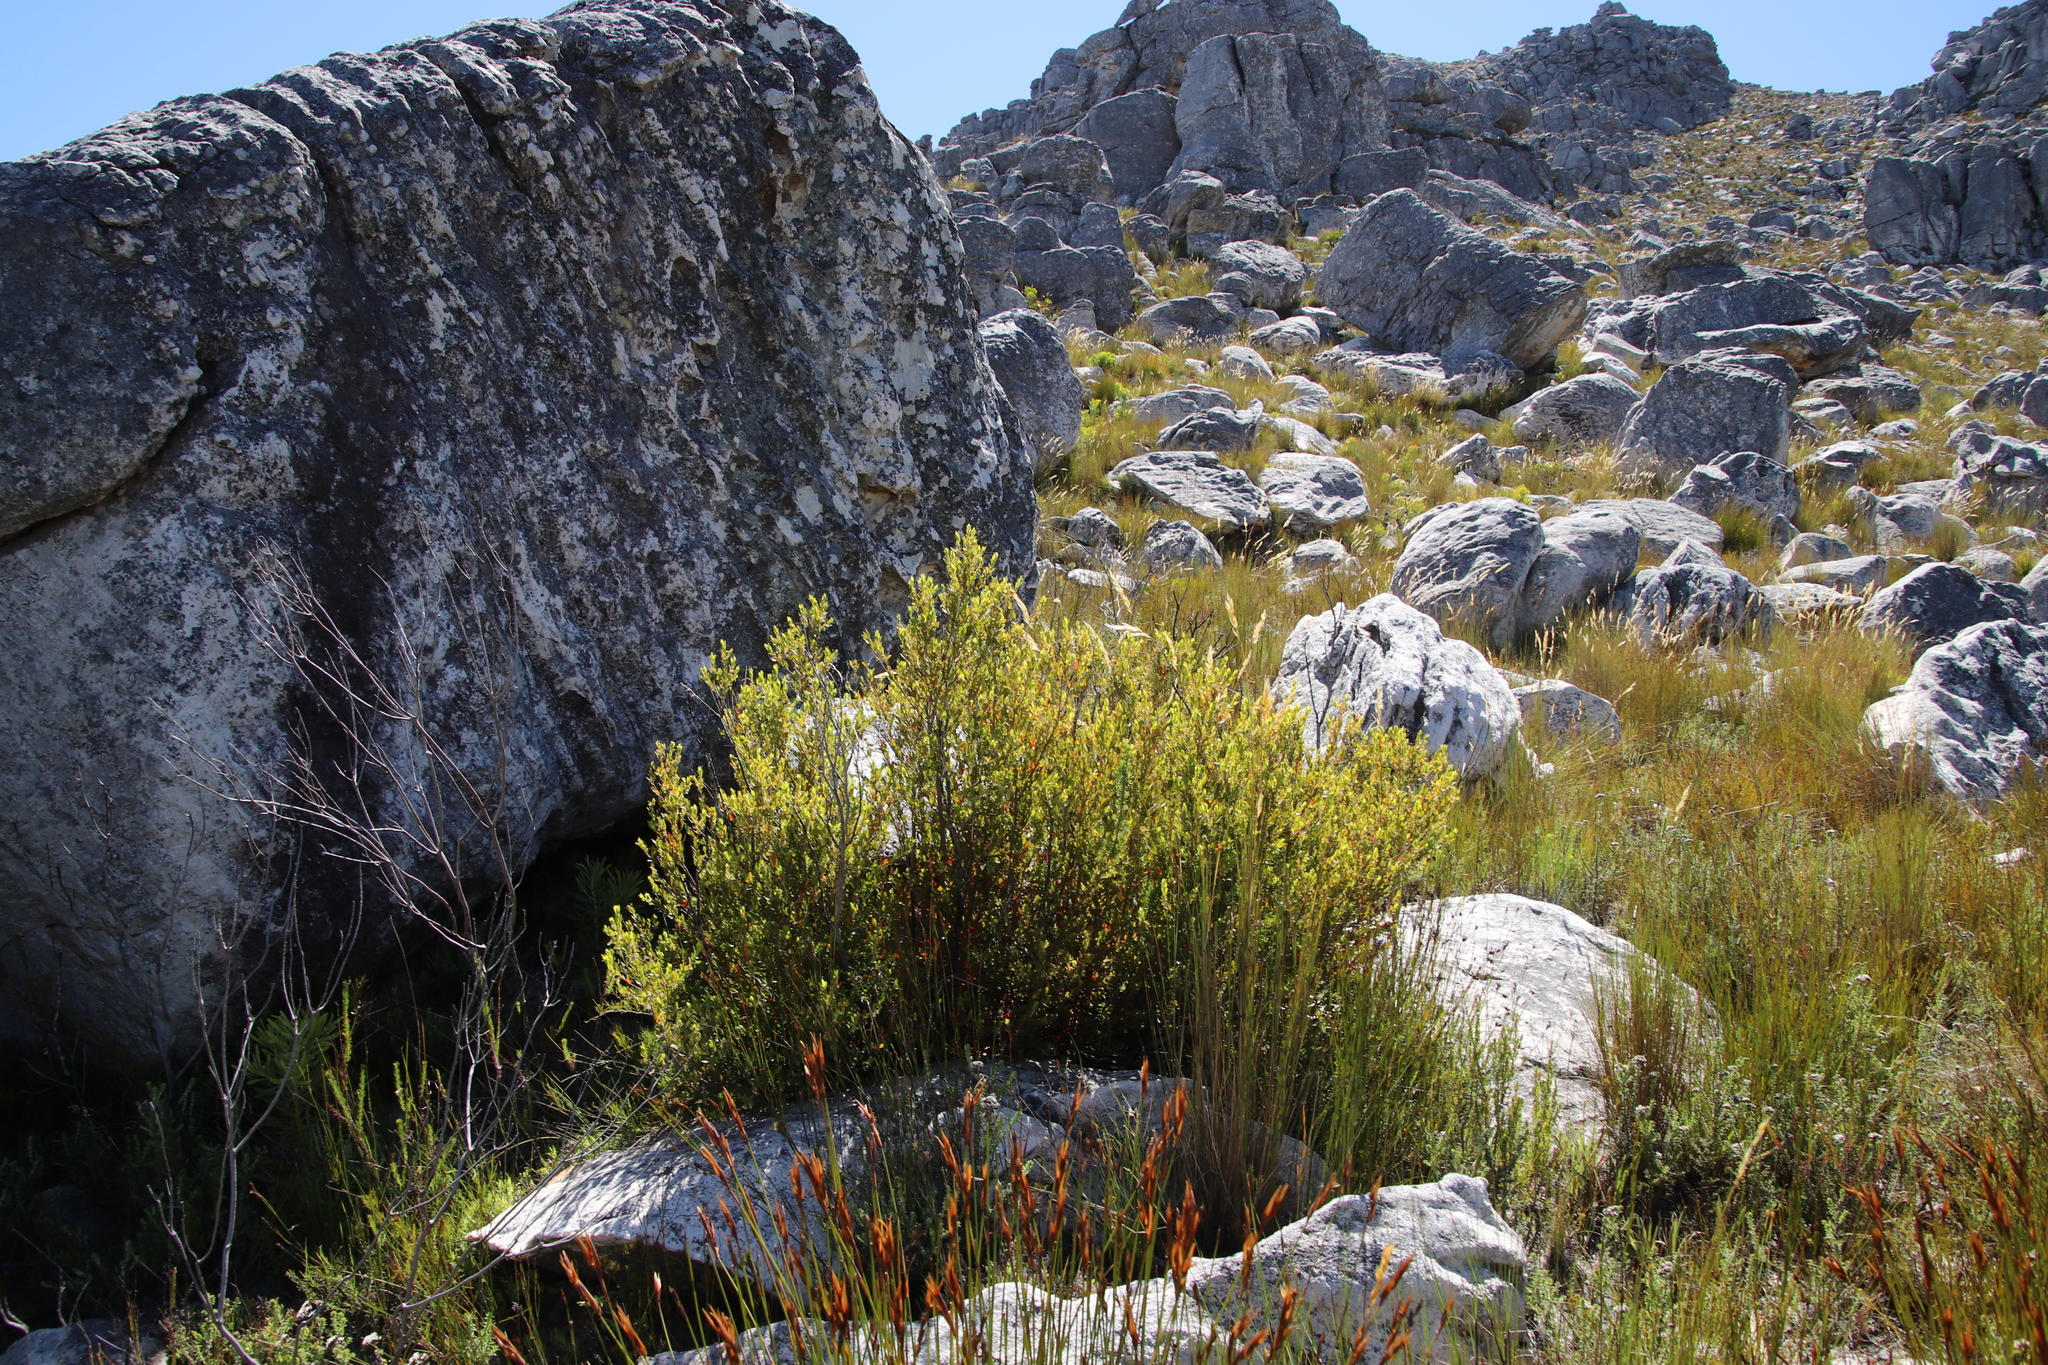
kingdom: Plantae
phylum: Tracheophyta
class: Magnoliopsida
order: Ericales
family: Ebenaceae
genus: Diospyros
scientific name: Diospyros glabra
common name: Fynbos star apple
